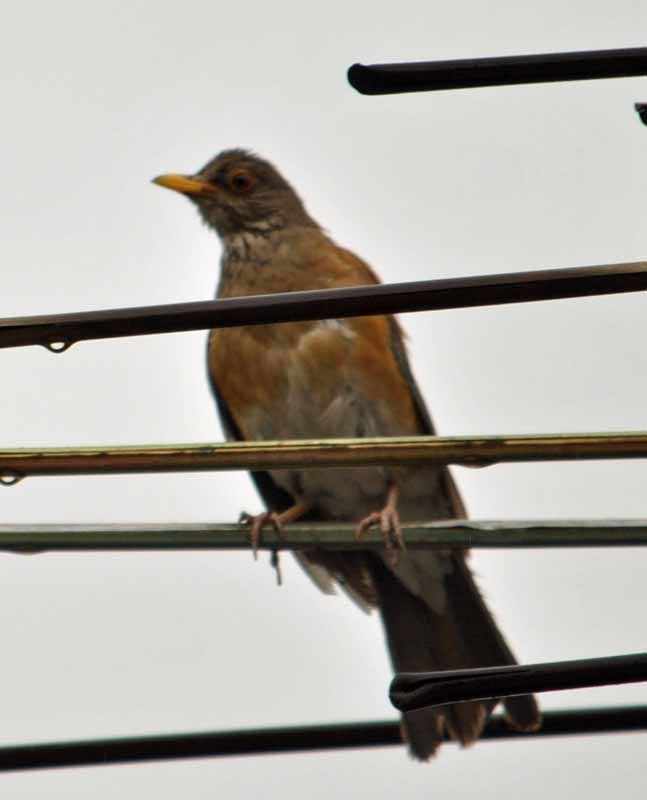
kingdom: Animalia
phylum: Chordata
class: Aves
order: Passeriformes
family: Turdidae
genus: Turdus
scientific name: Turdus rufopalliatus
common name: Rufous-backed robin
